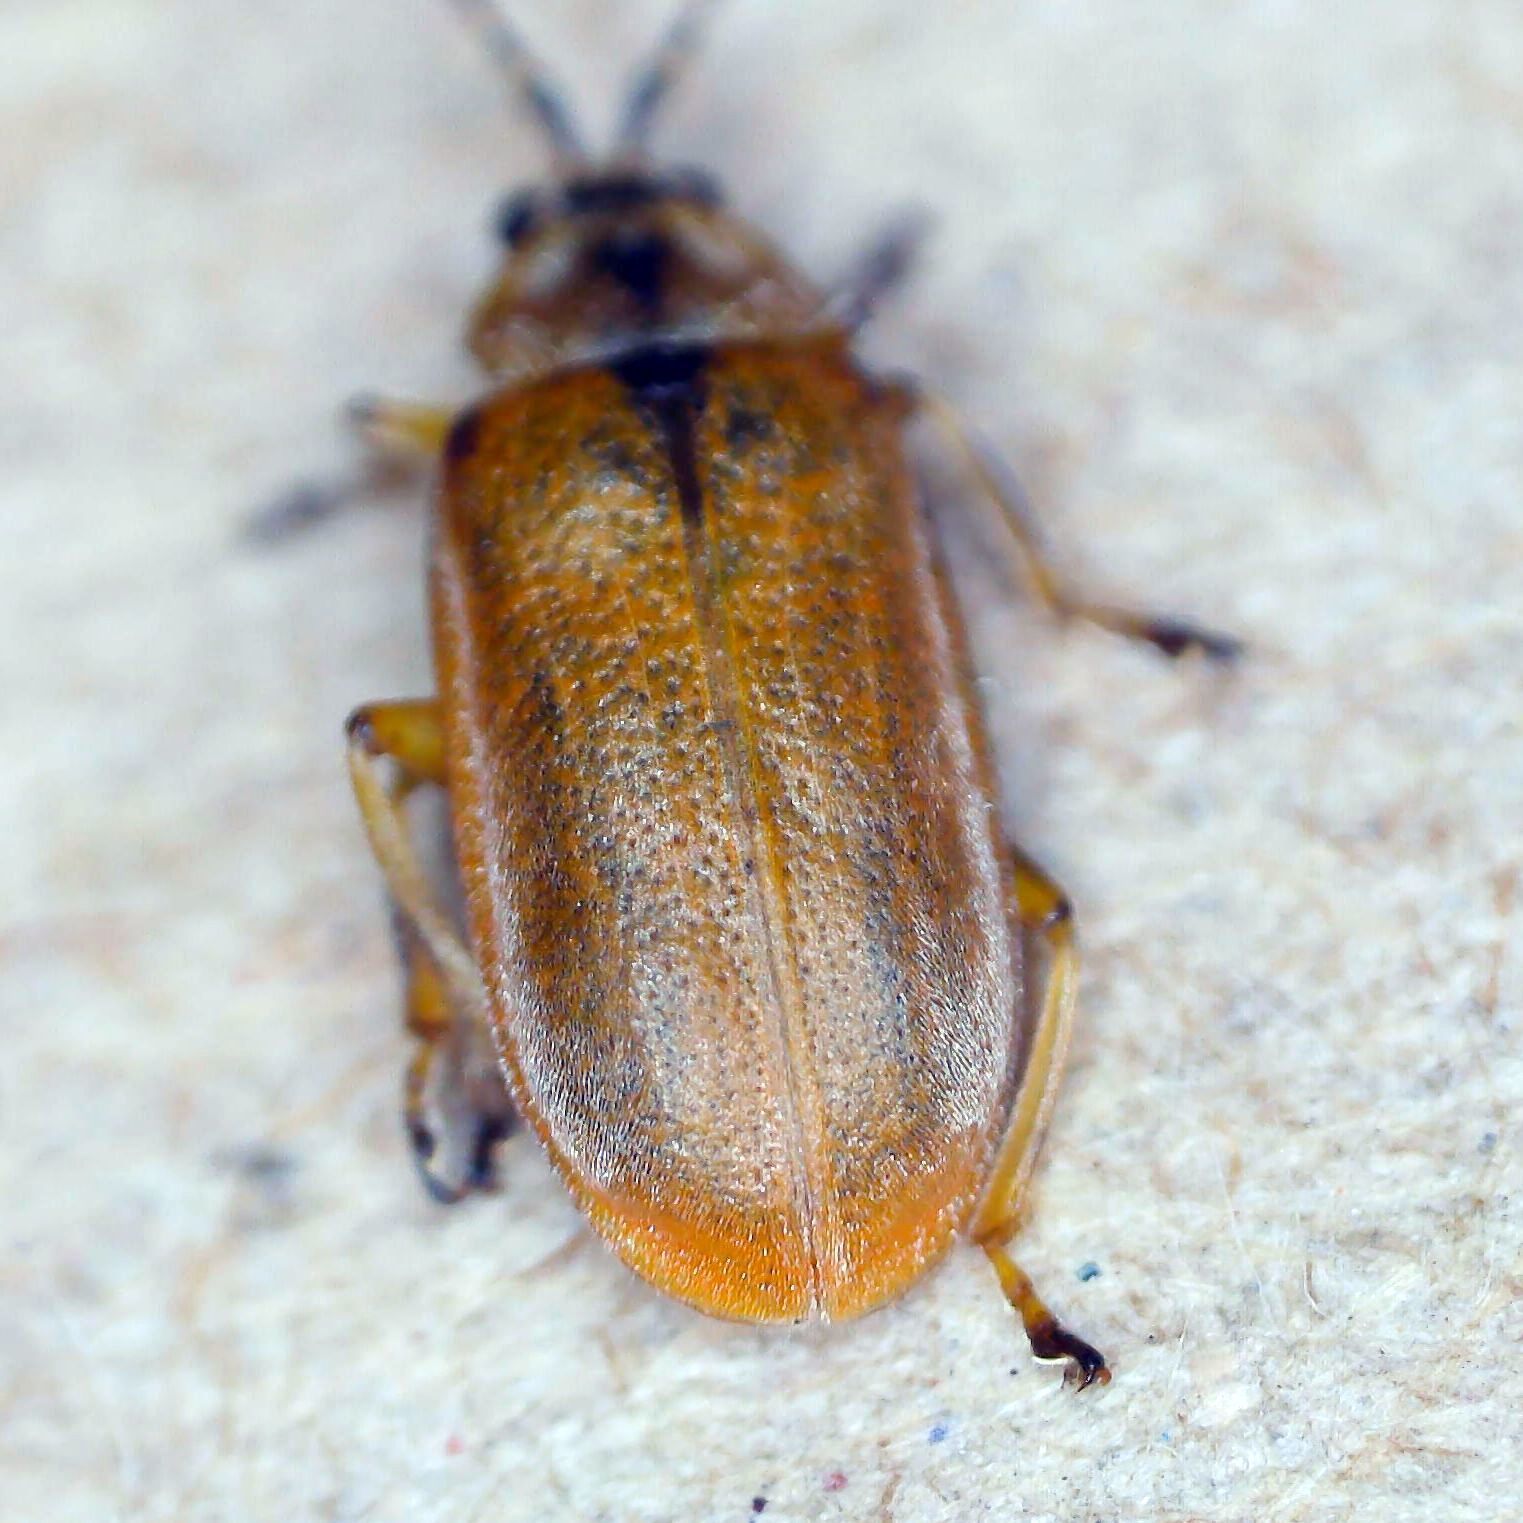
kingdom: Animalia
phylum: Arthropoda
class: Insecta
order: Coleoptera
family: Chrysomelidae
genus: Galerucella
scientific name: Galerucella lineola
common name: Brown willow beetle
